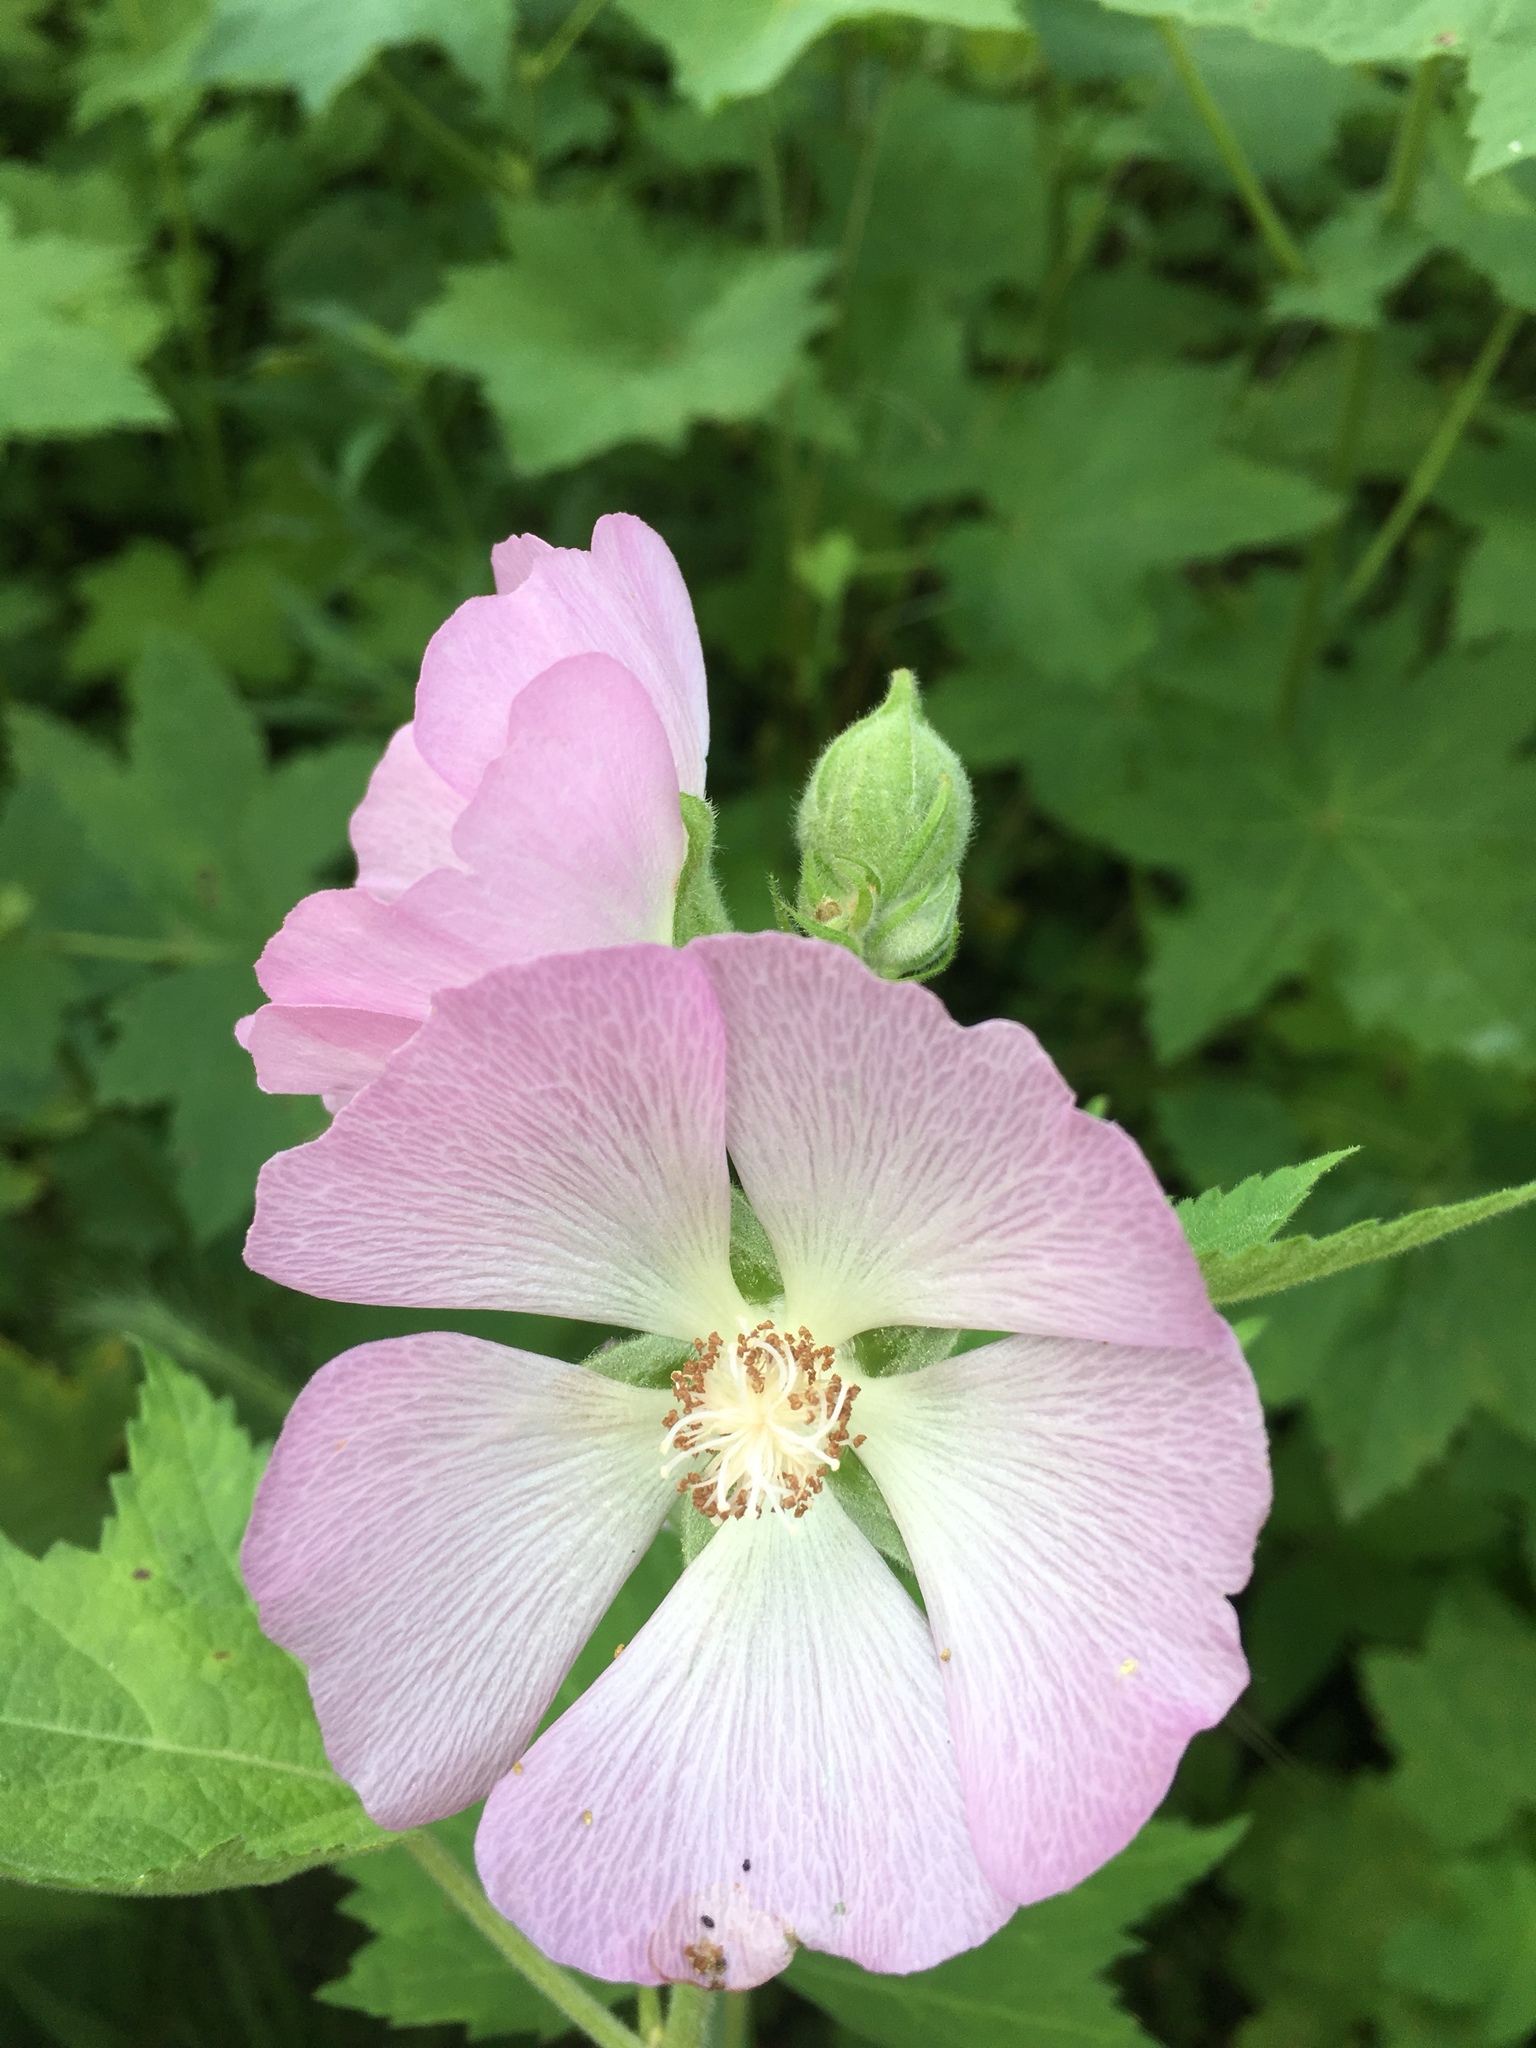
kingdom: Plantae
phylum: Tracheophyta
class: Magnoliopsida
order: Malvales
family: Malvaceae
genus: Iliamna
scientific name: Iliamna remota
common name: Kankakee globe-mallow
